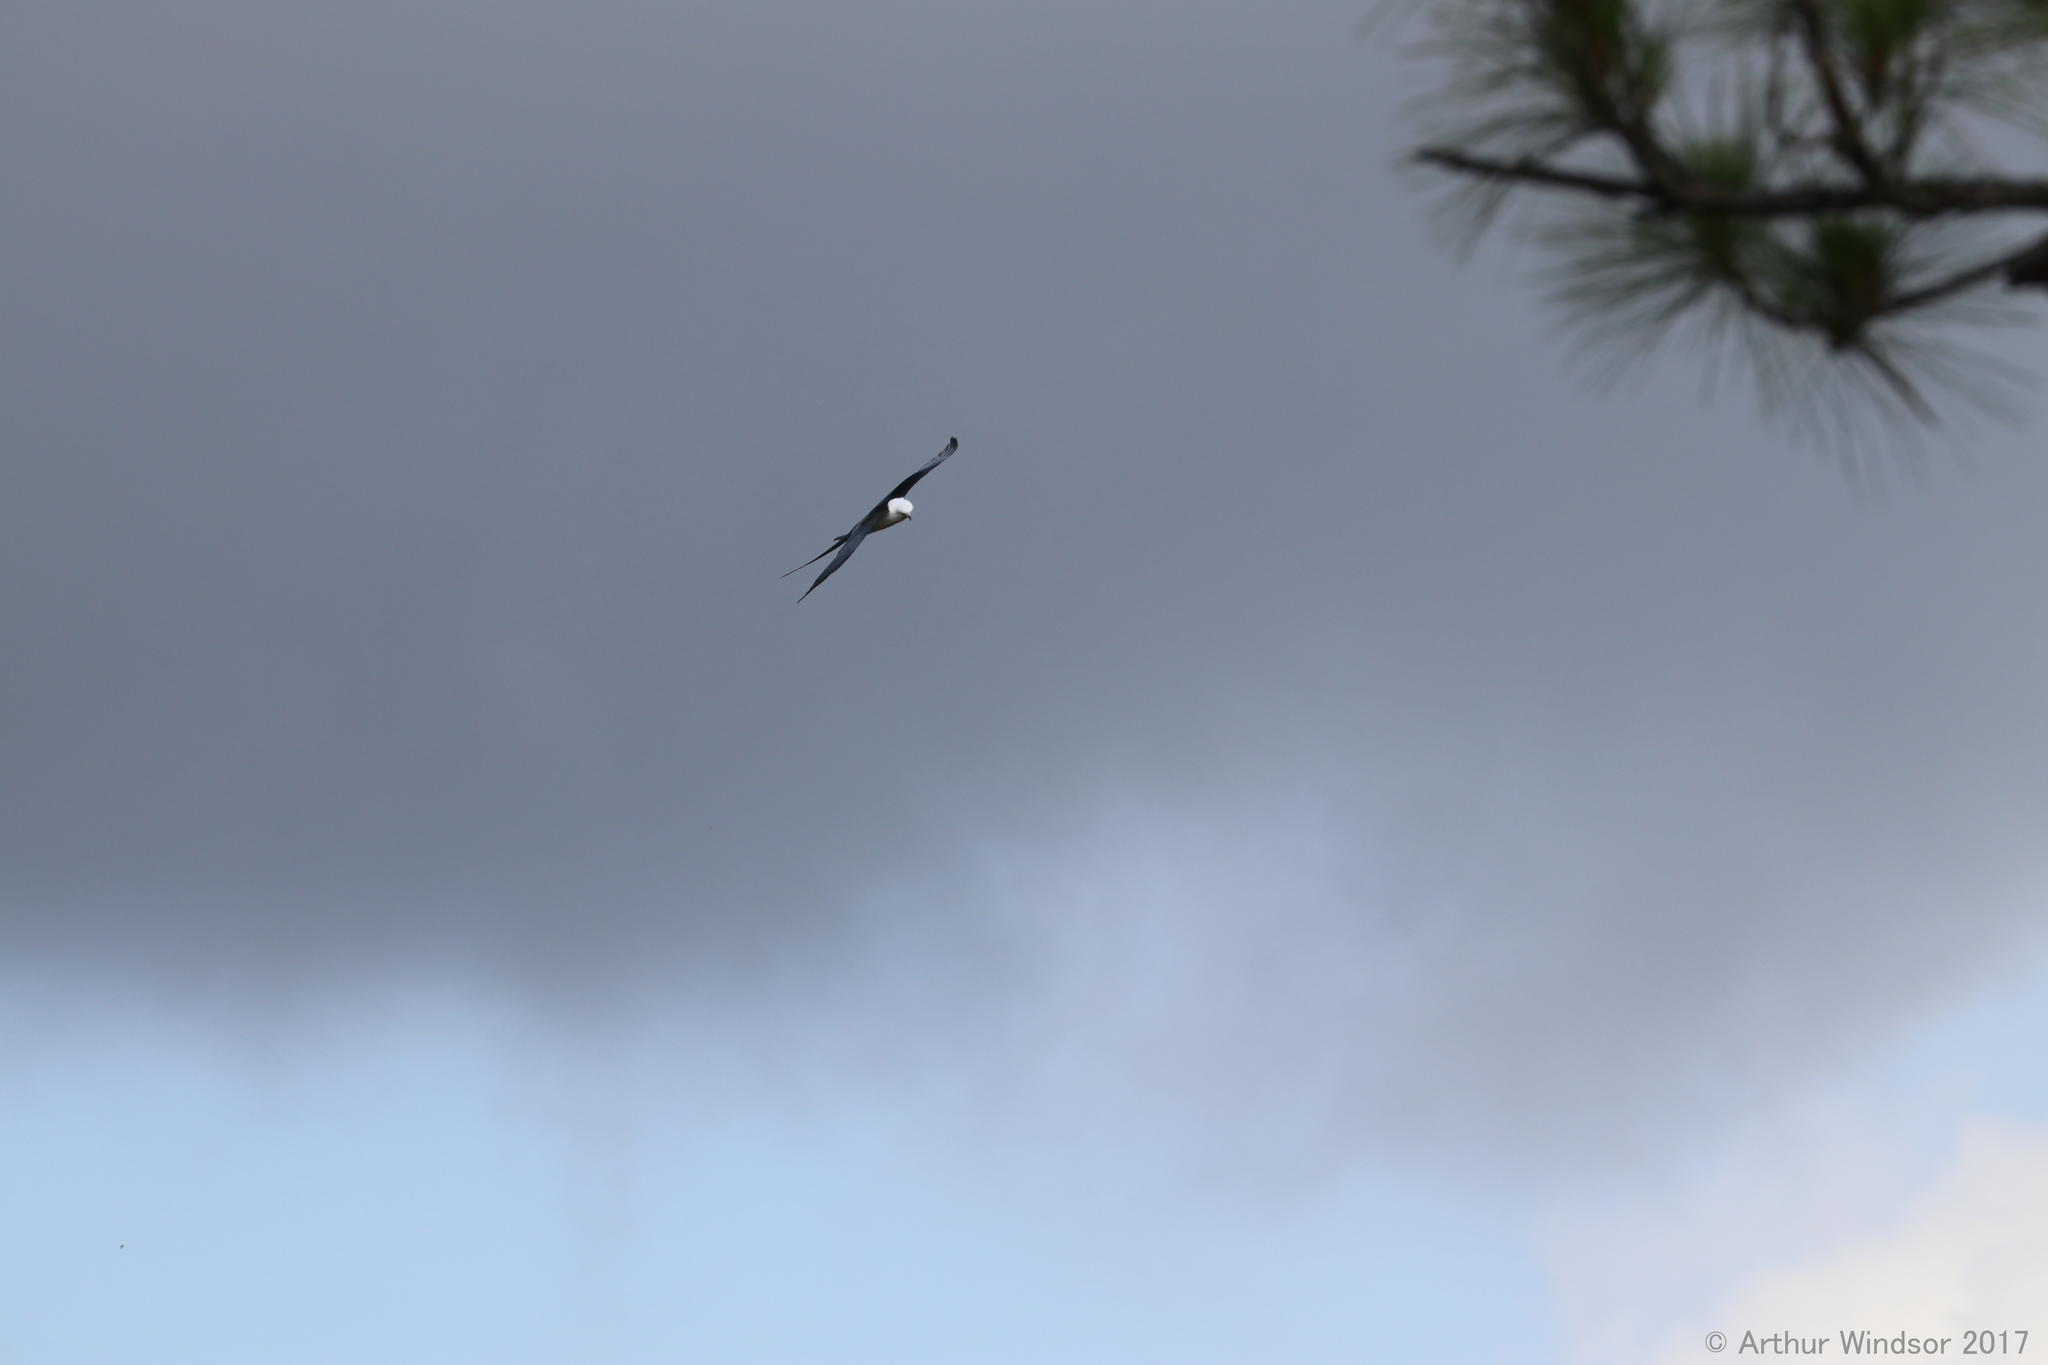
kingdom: Animalia
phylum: Chordata
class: Aves
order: Accipitriformes
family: Accipitridae
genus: Elanoides
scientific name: Elanoides forficatus
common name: Swallow-tailed kite
